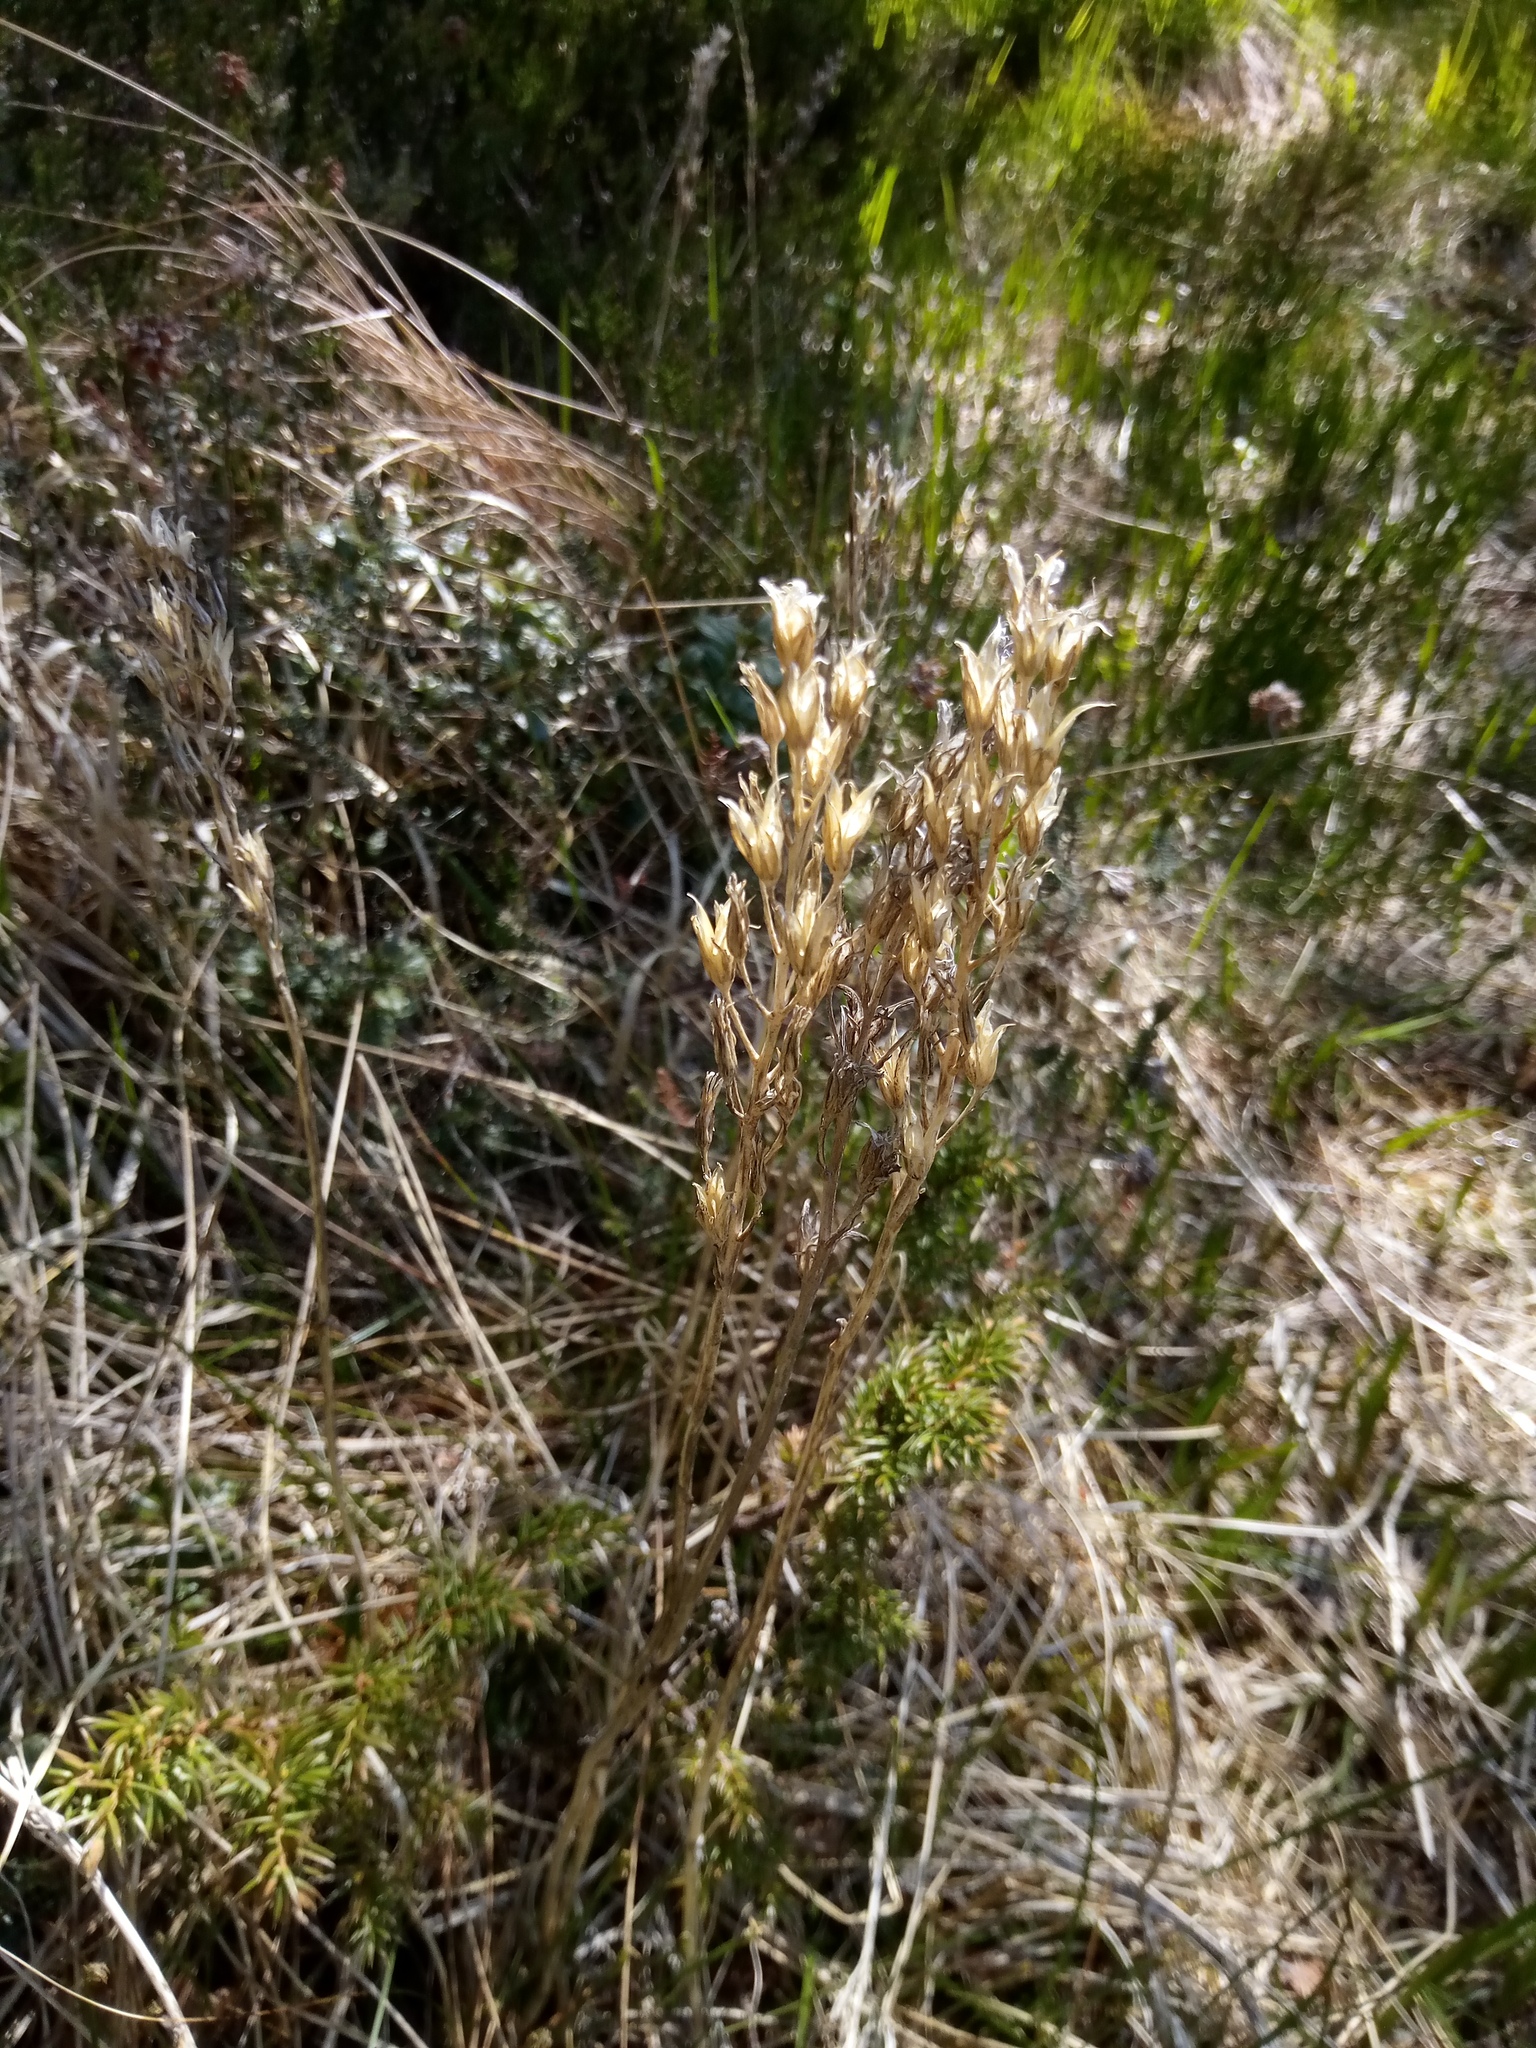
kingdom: Plantae
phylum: Tracheophyta
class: Liliopsida
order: Dioscoreales
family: Nartheciaceae
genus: Narthecium
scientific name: Narthecium ossifragum
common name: Bog asphodel
